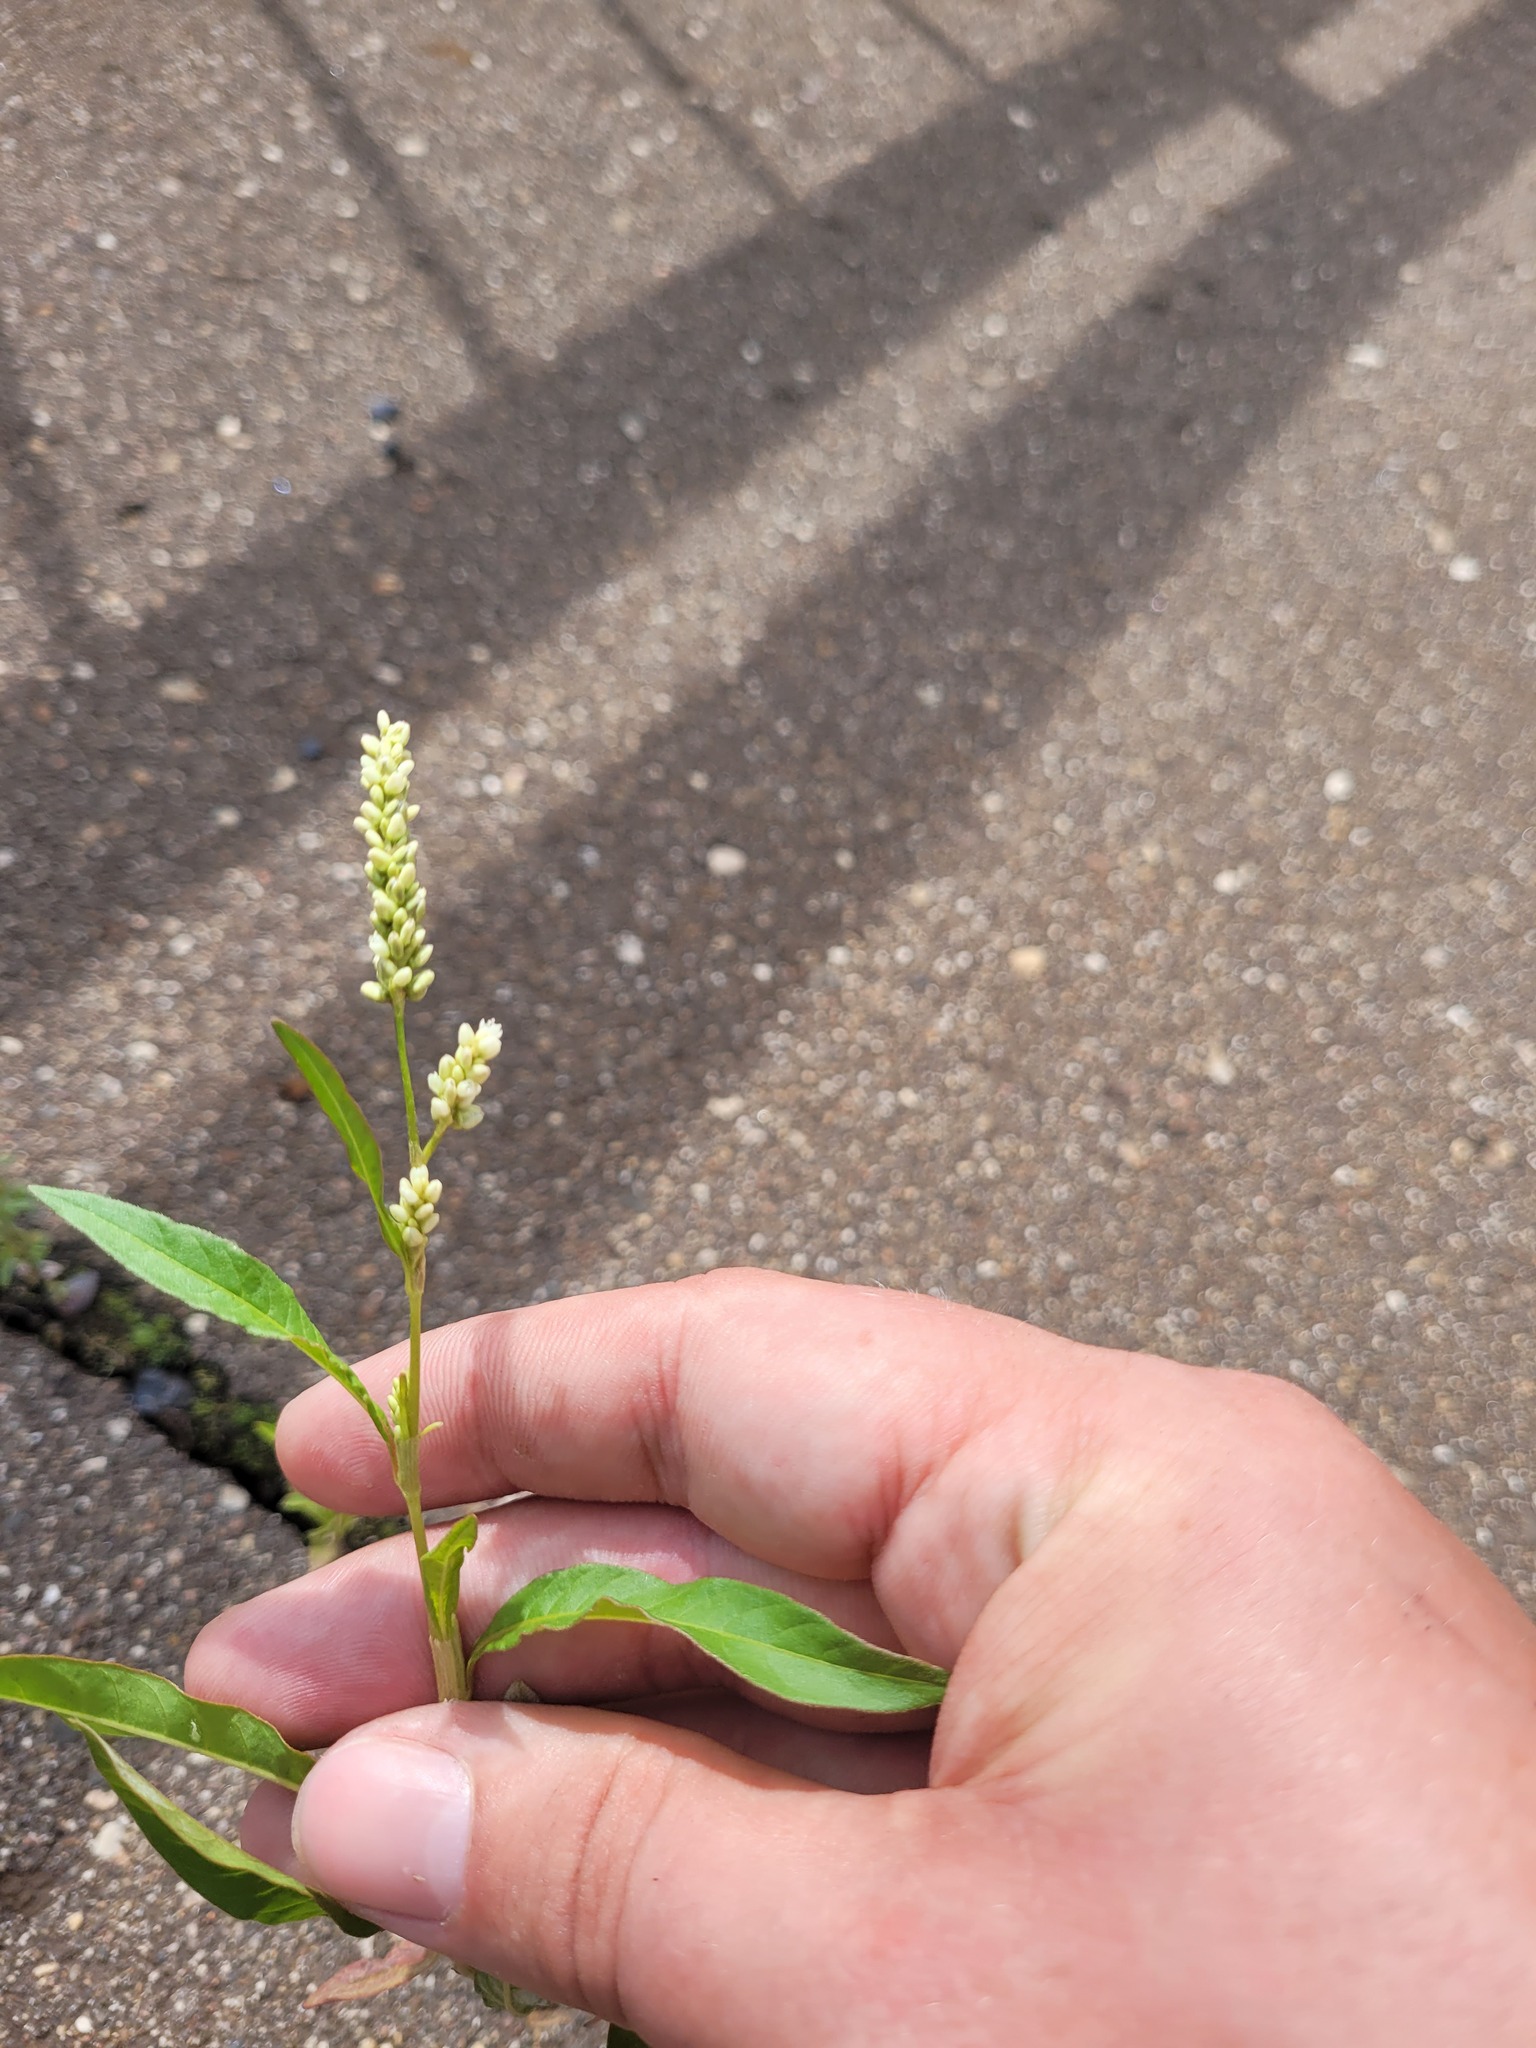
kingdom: Plantae
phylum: Tracheophyta
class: Magnoliopsida
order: Caryophyllales
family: Polygonaceae
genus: Persicaria
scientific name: Persicaria maculosa
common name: Redshank
